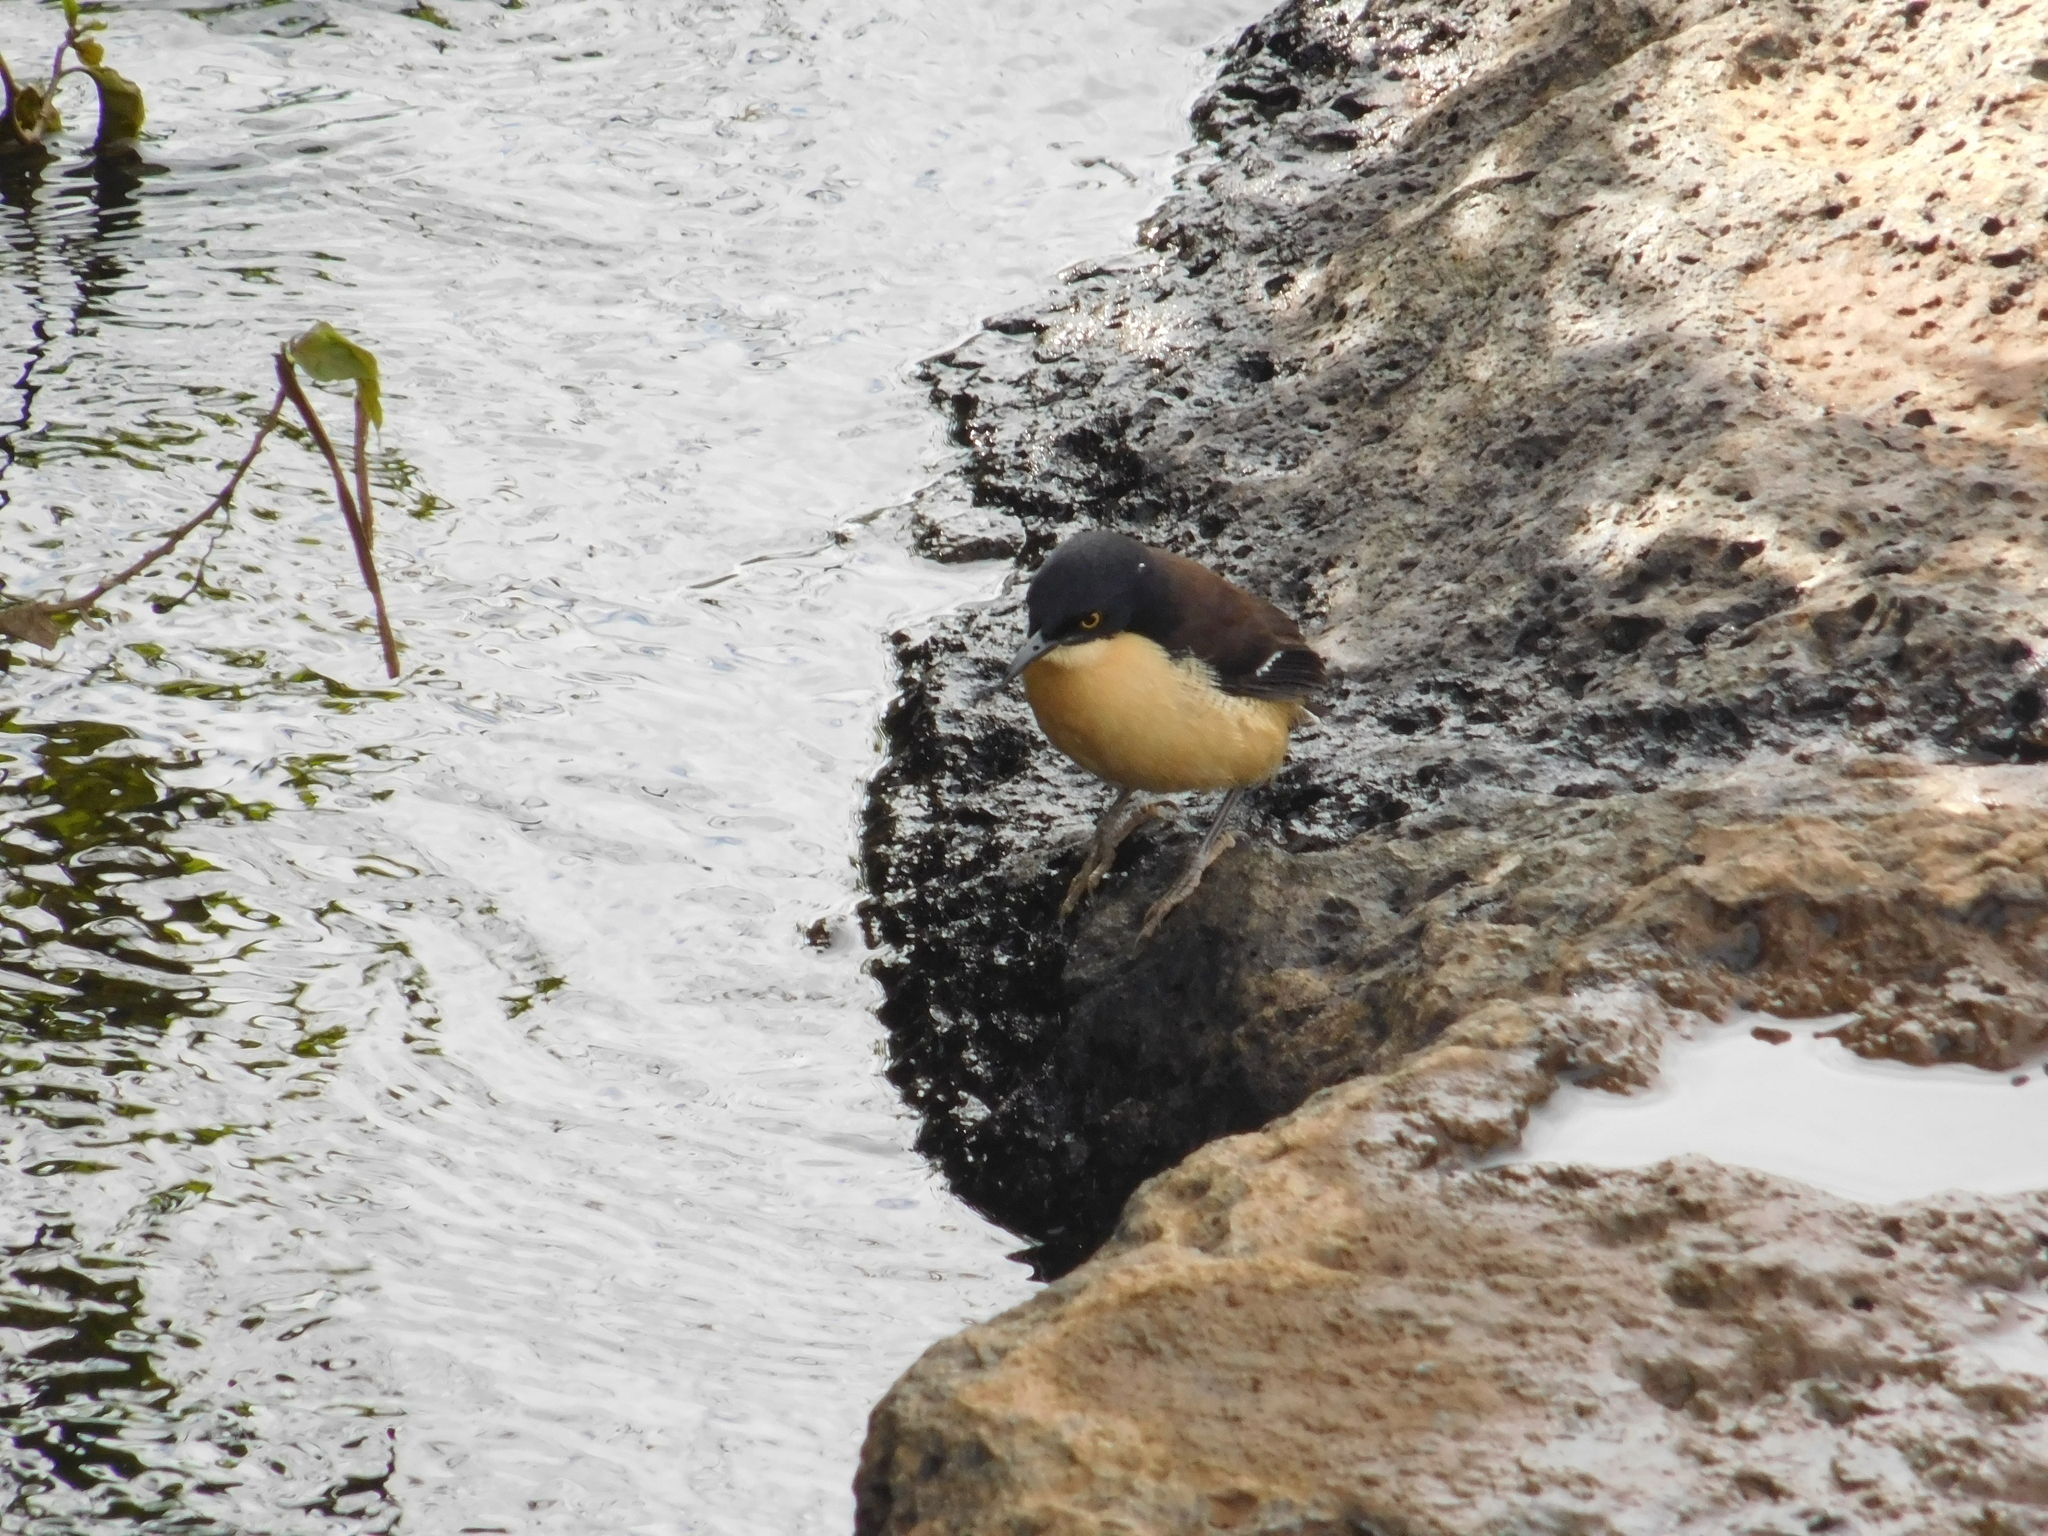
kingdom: Animalia
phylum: Chordata
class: Aves
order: Passeriformes
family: Donacobiidae
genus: Donacobius
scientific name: Donacobius atricapilla
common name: Black-capped donacobius
